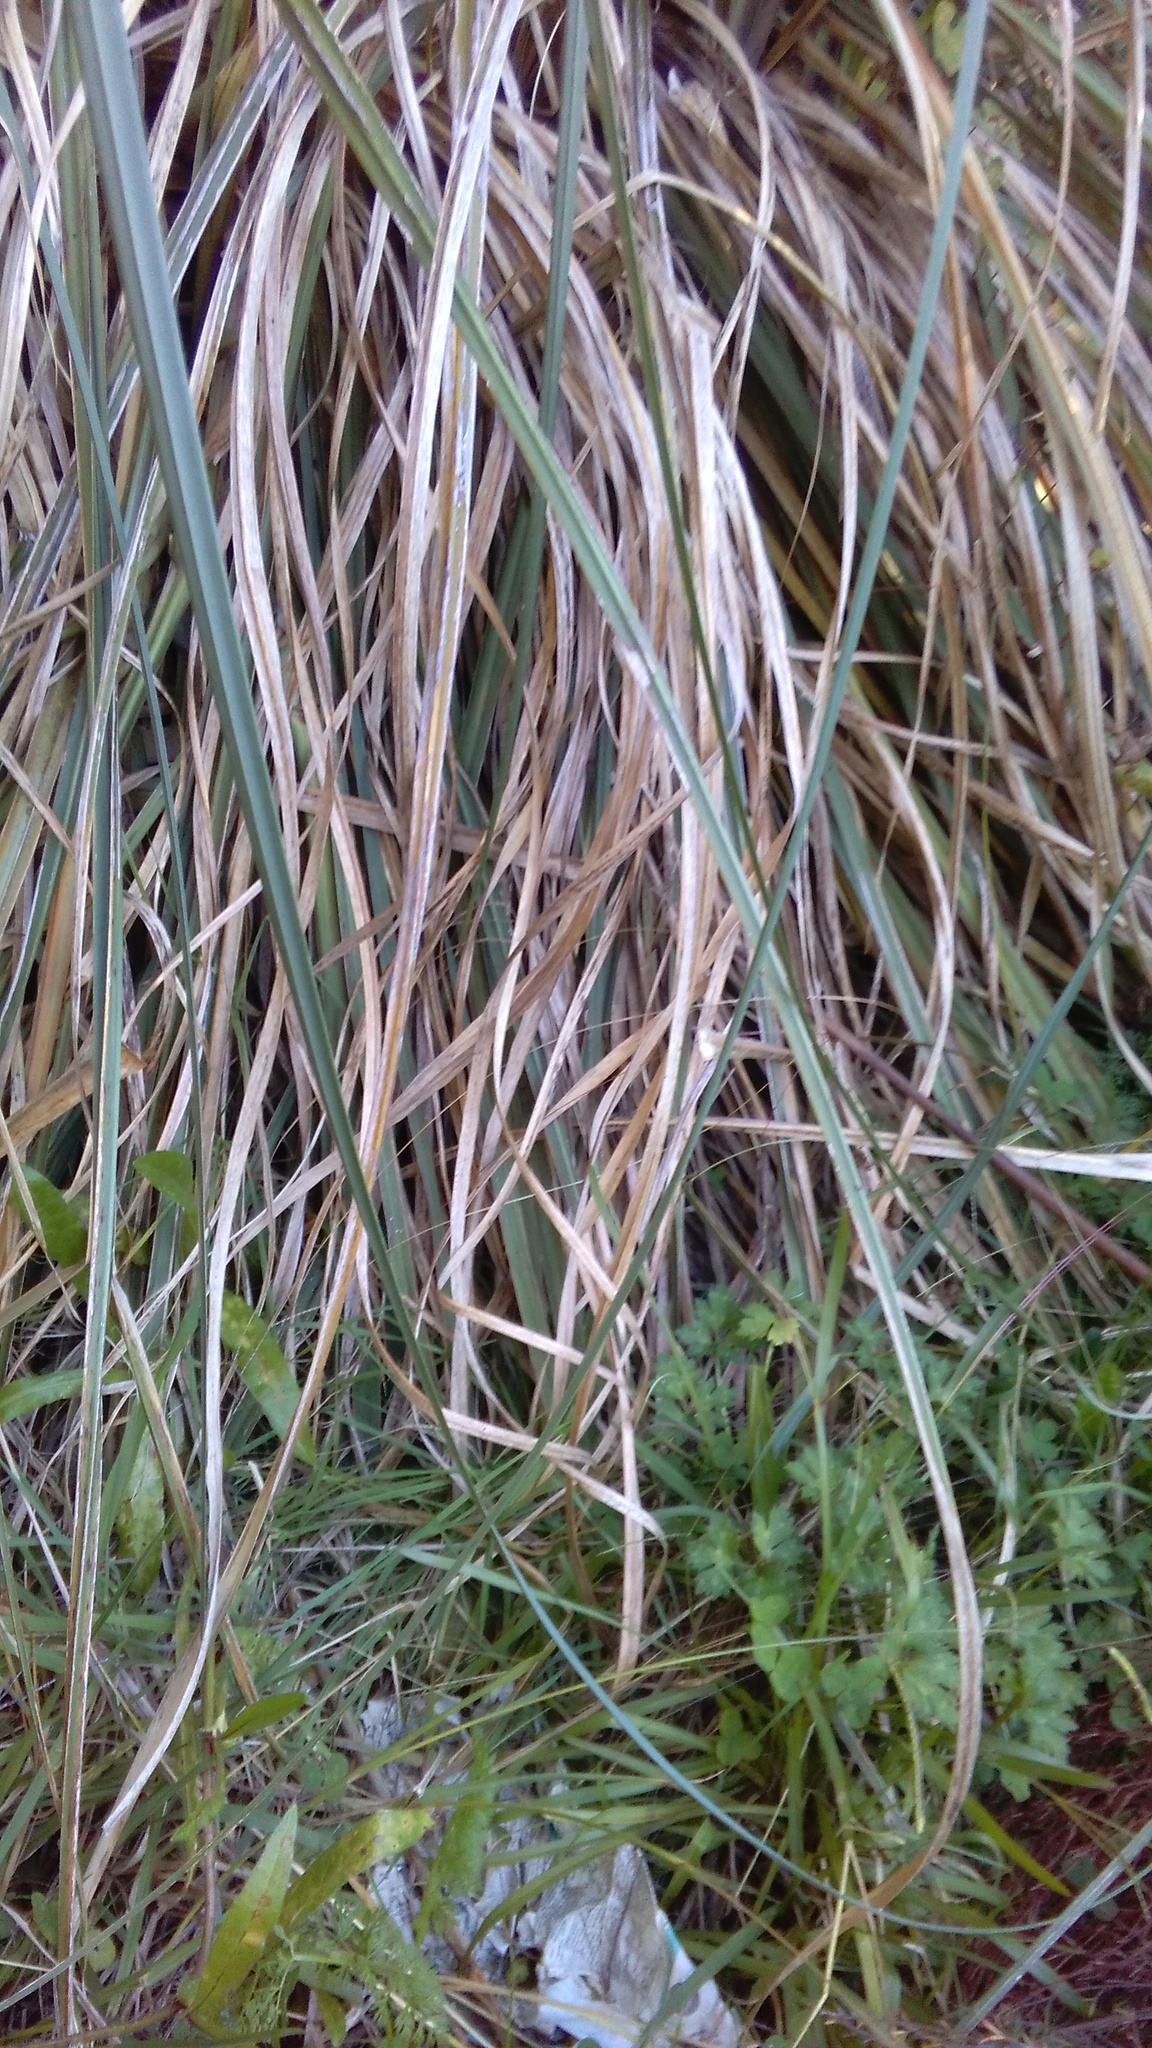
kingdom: Plantae
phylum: Tracheophyta
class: Liliopsida
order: Poales
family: Poaceae
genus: Cortaderia
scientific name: Cortaderia selloana
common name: Uruguayan pampas grass
